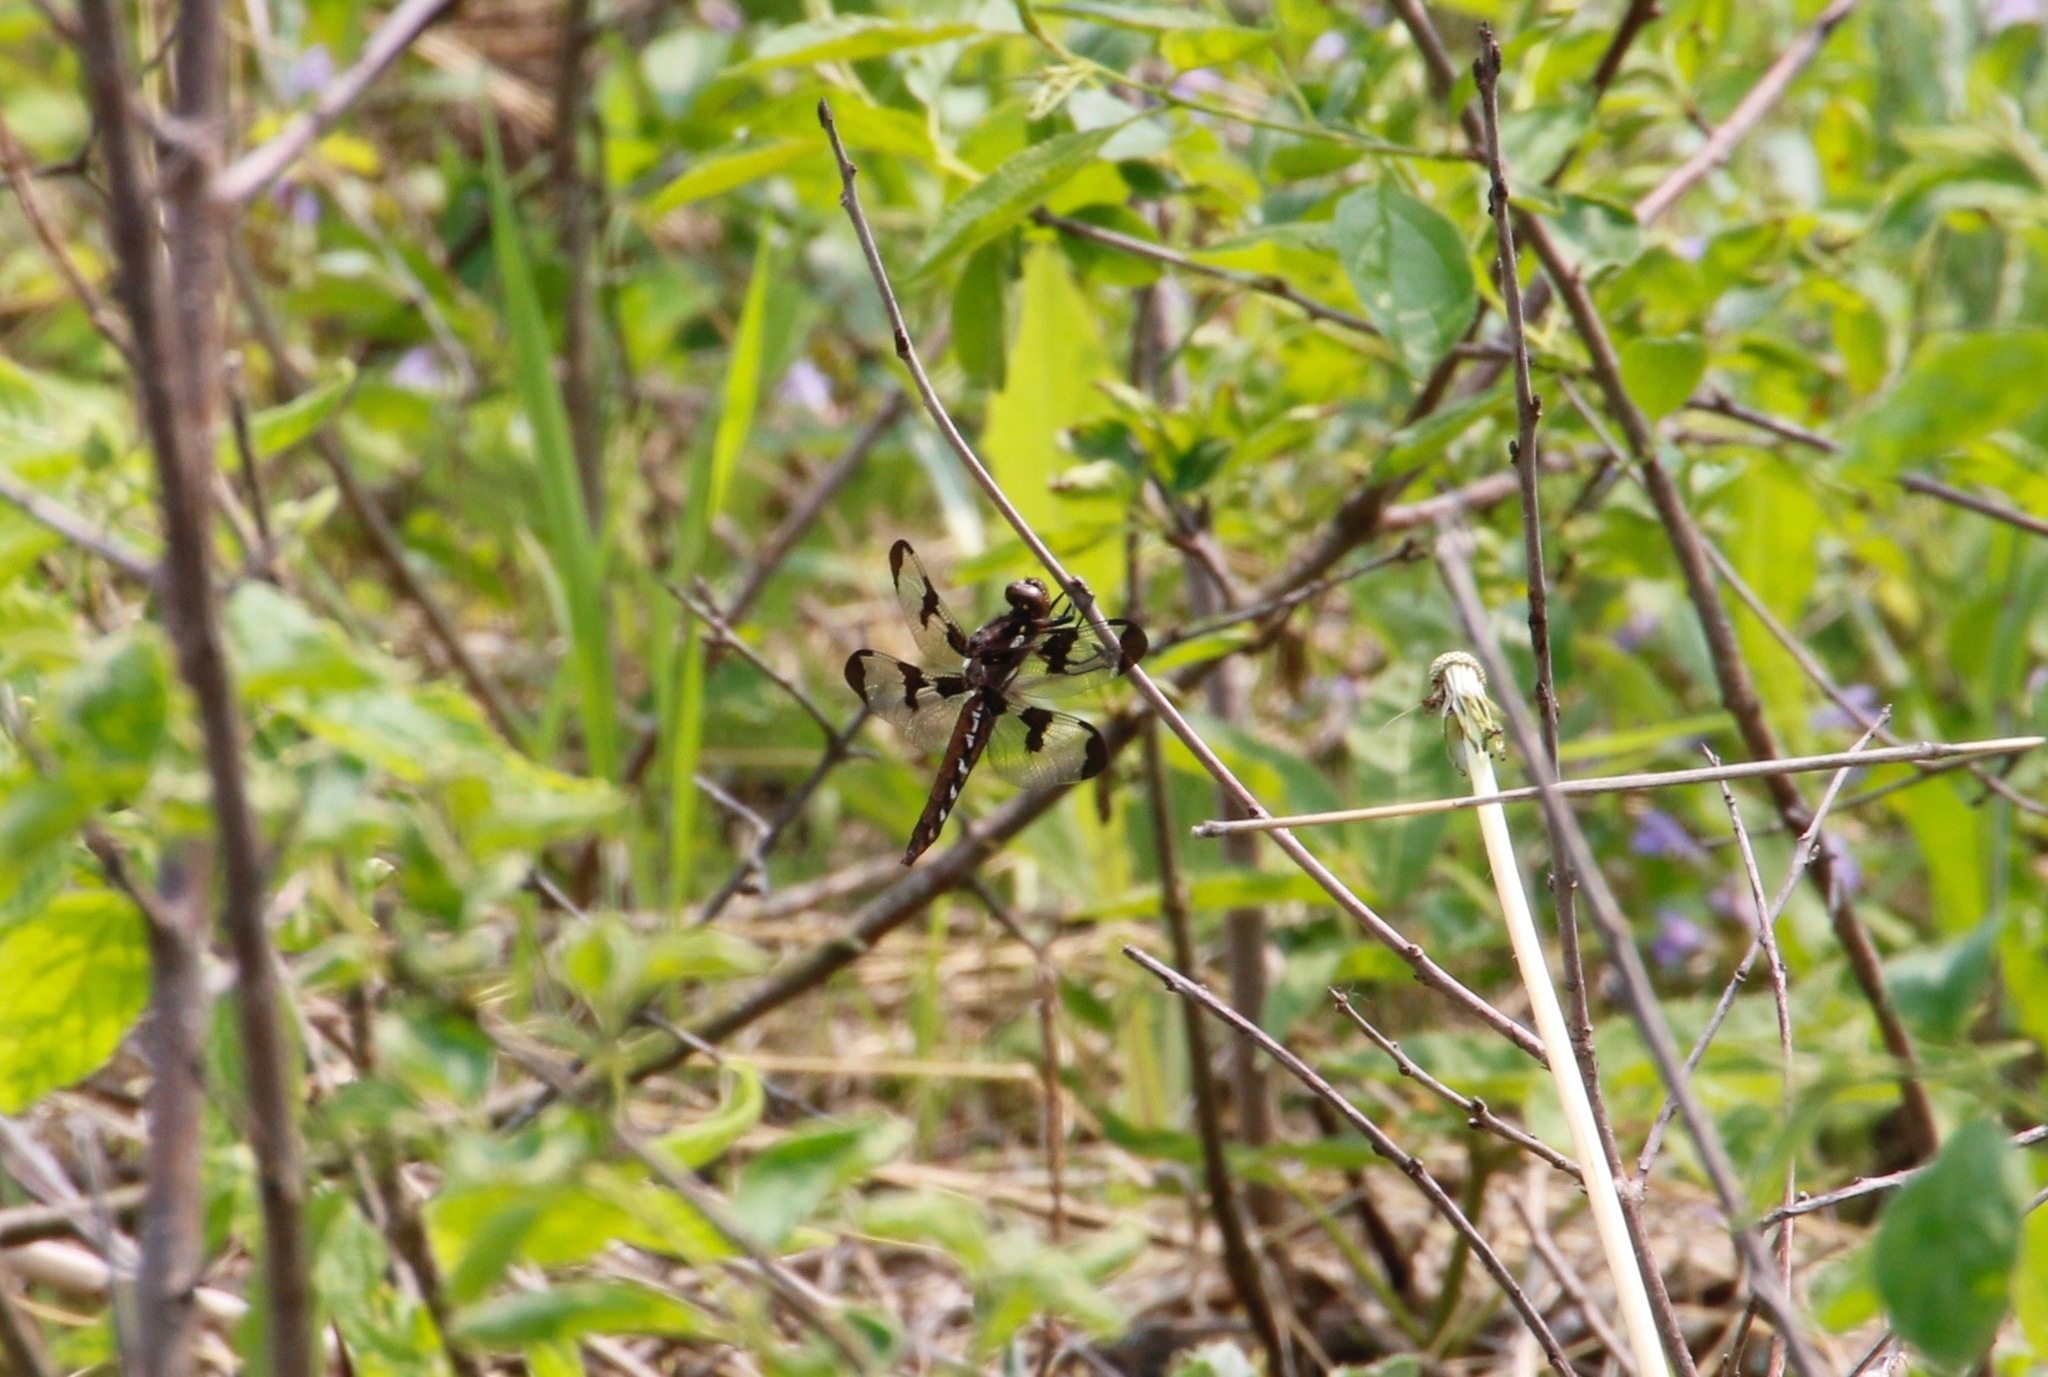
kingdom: Animalia
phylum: Arthropoda
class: Insecta
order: Odonata
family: Libellulidae
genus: Plathemis
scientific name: Plathemis lydia
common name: Common whitetail
